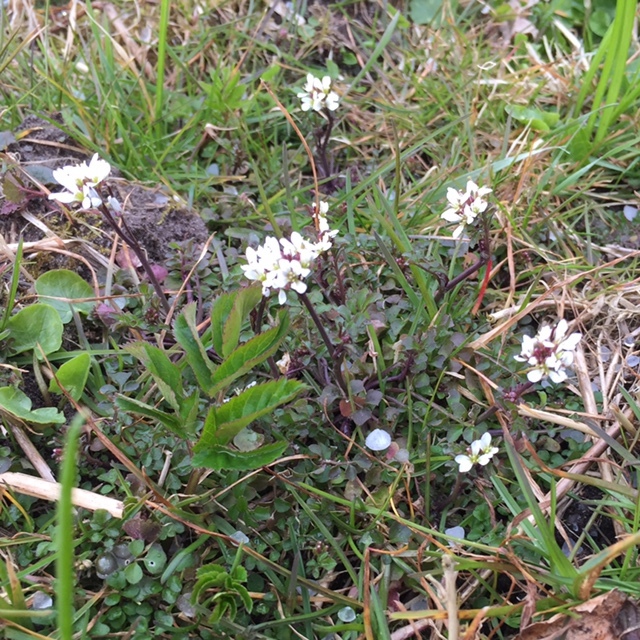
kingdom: Plantae
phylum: Tracheophyta
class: Magnoliopsida
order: Brassicales
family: Brassicaceae
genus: Cardamine
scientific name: Cardamine hirsuta
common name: Hairy bittercress
